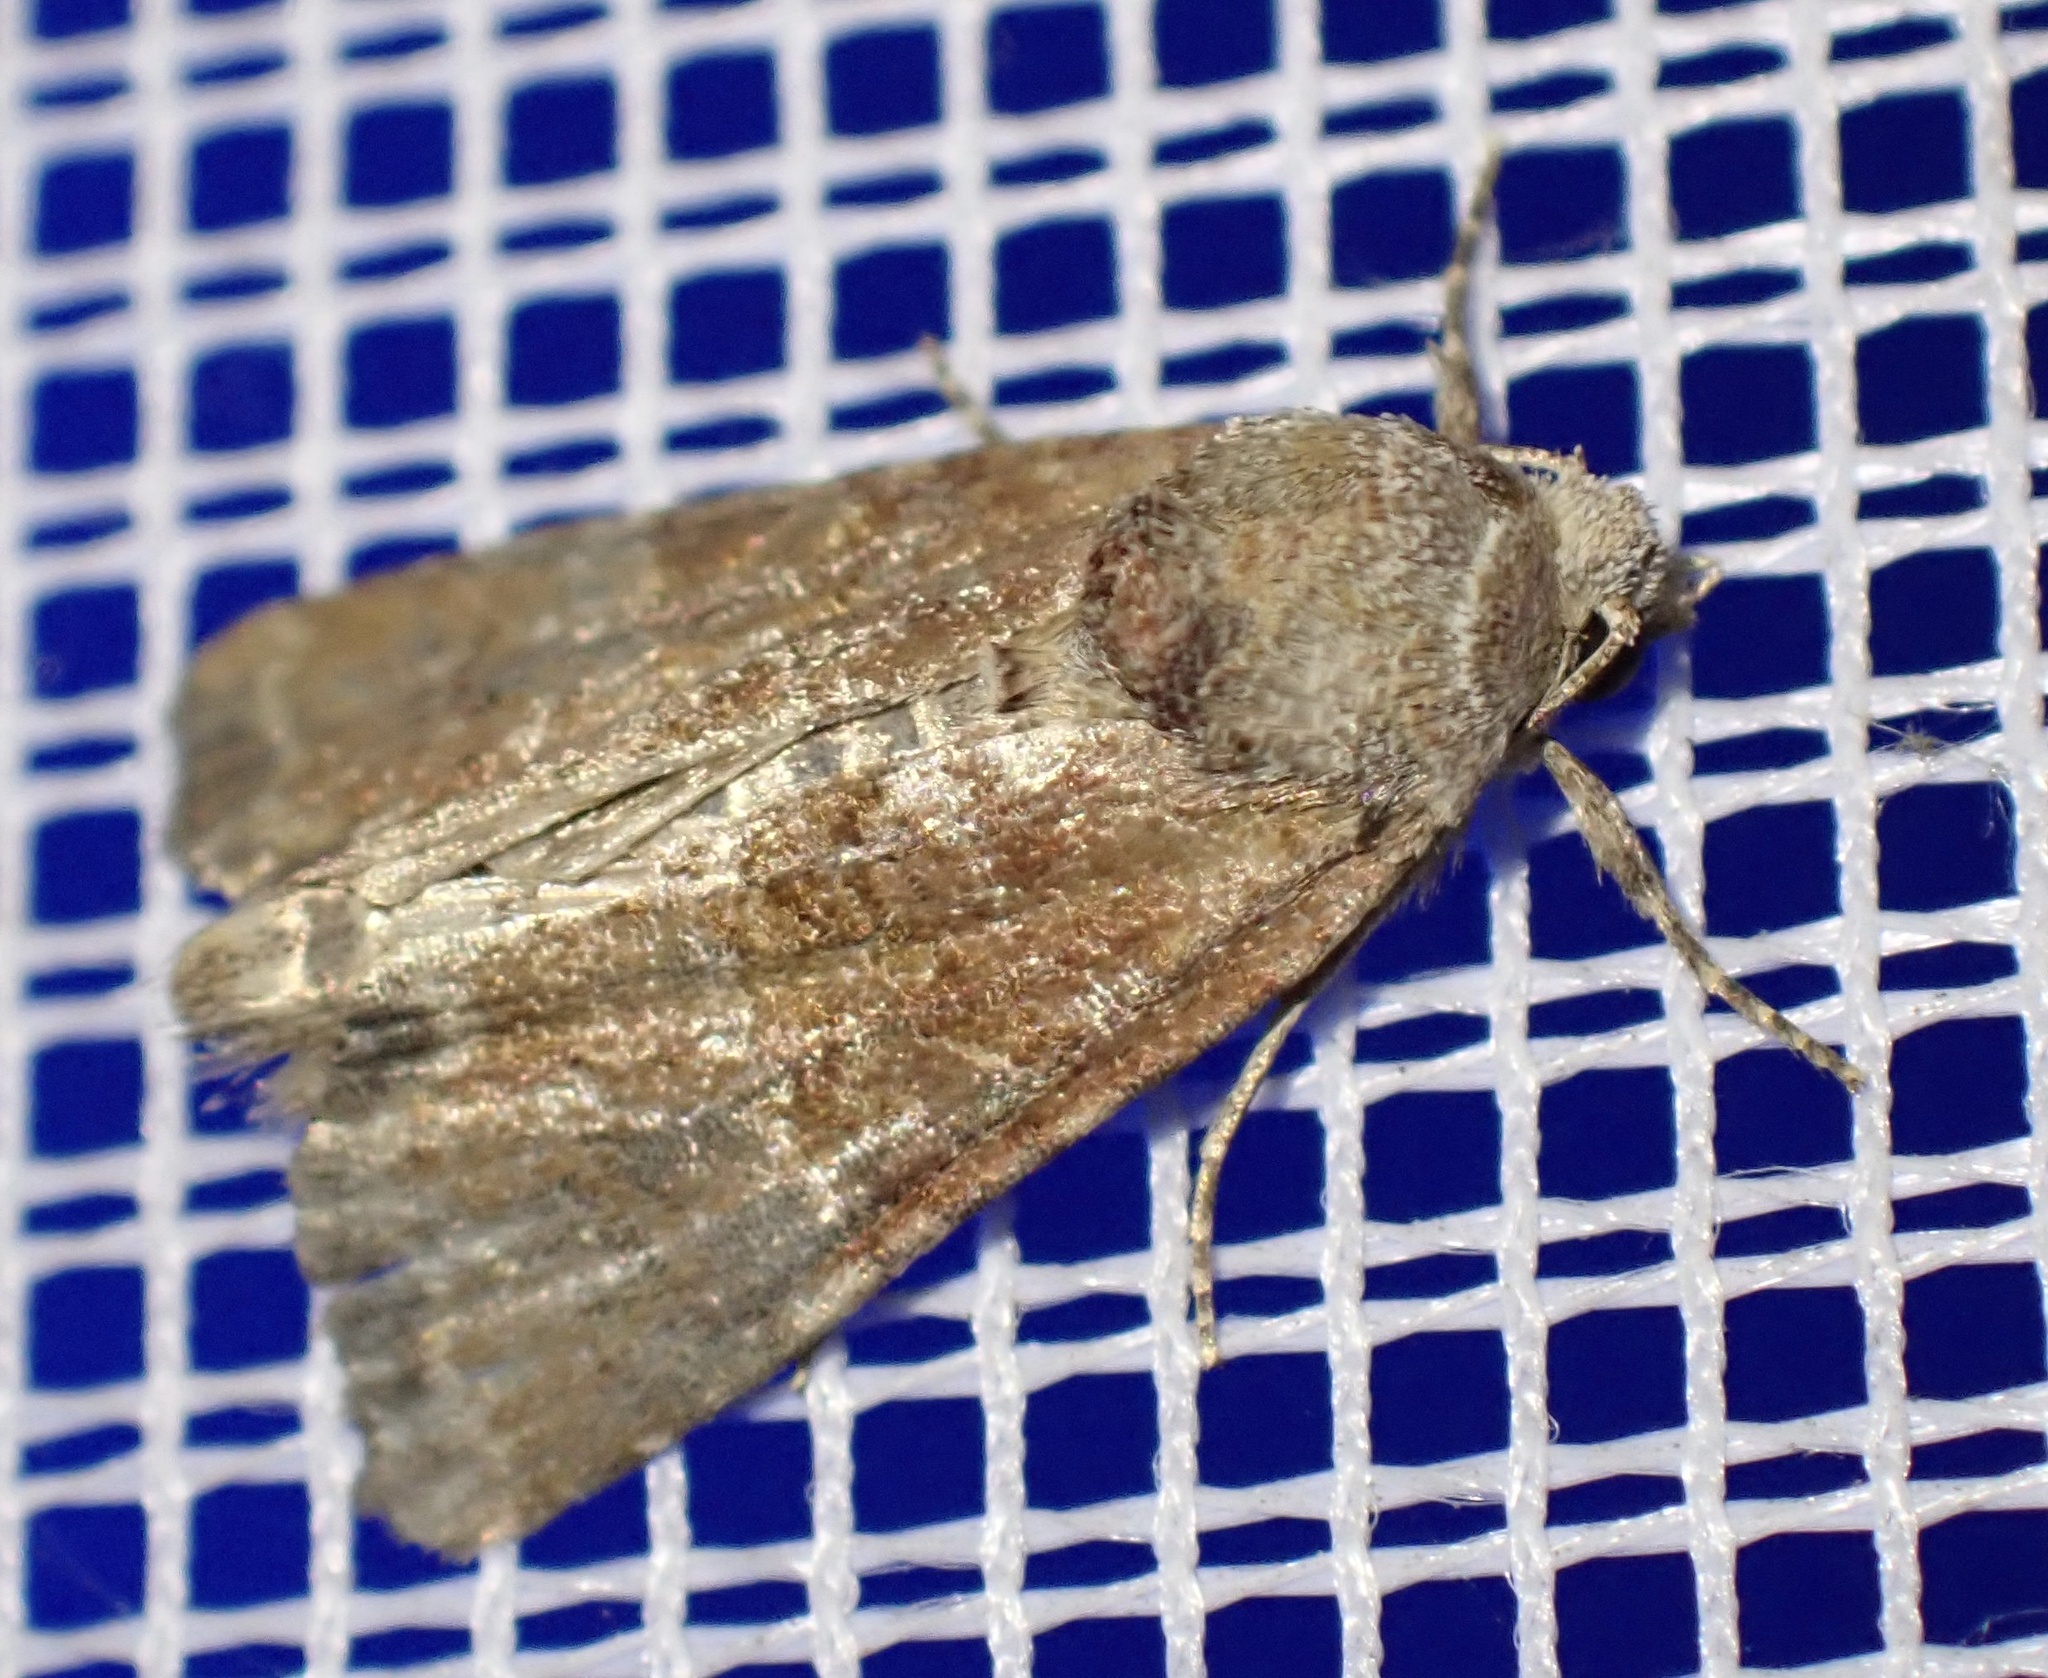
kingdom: Animalia
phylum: Arthropoda
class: Insecta
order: Lepidoptera
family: Noctuidae
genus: Mesoligia
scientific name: Mesoligia furuncula
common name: Cloaked minor
